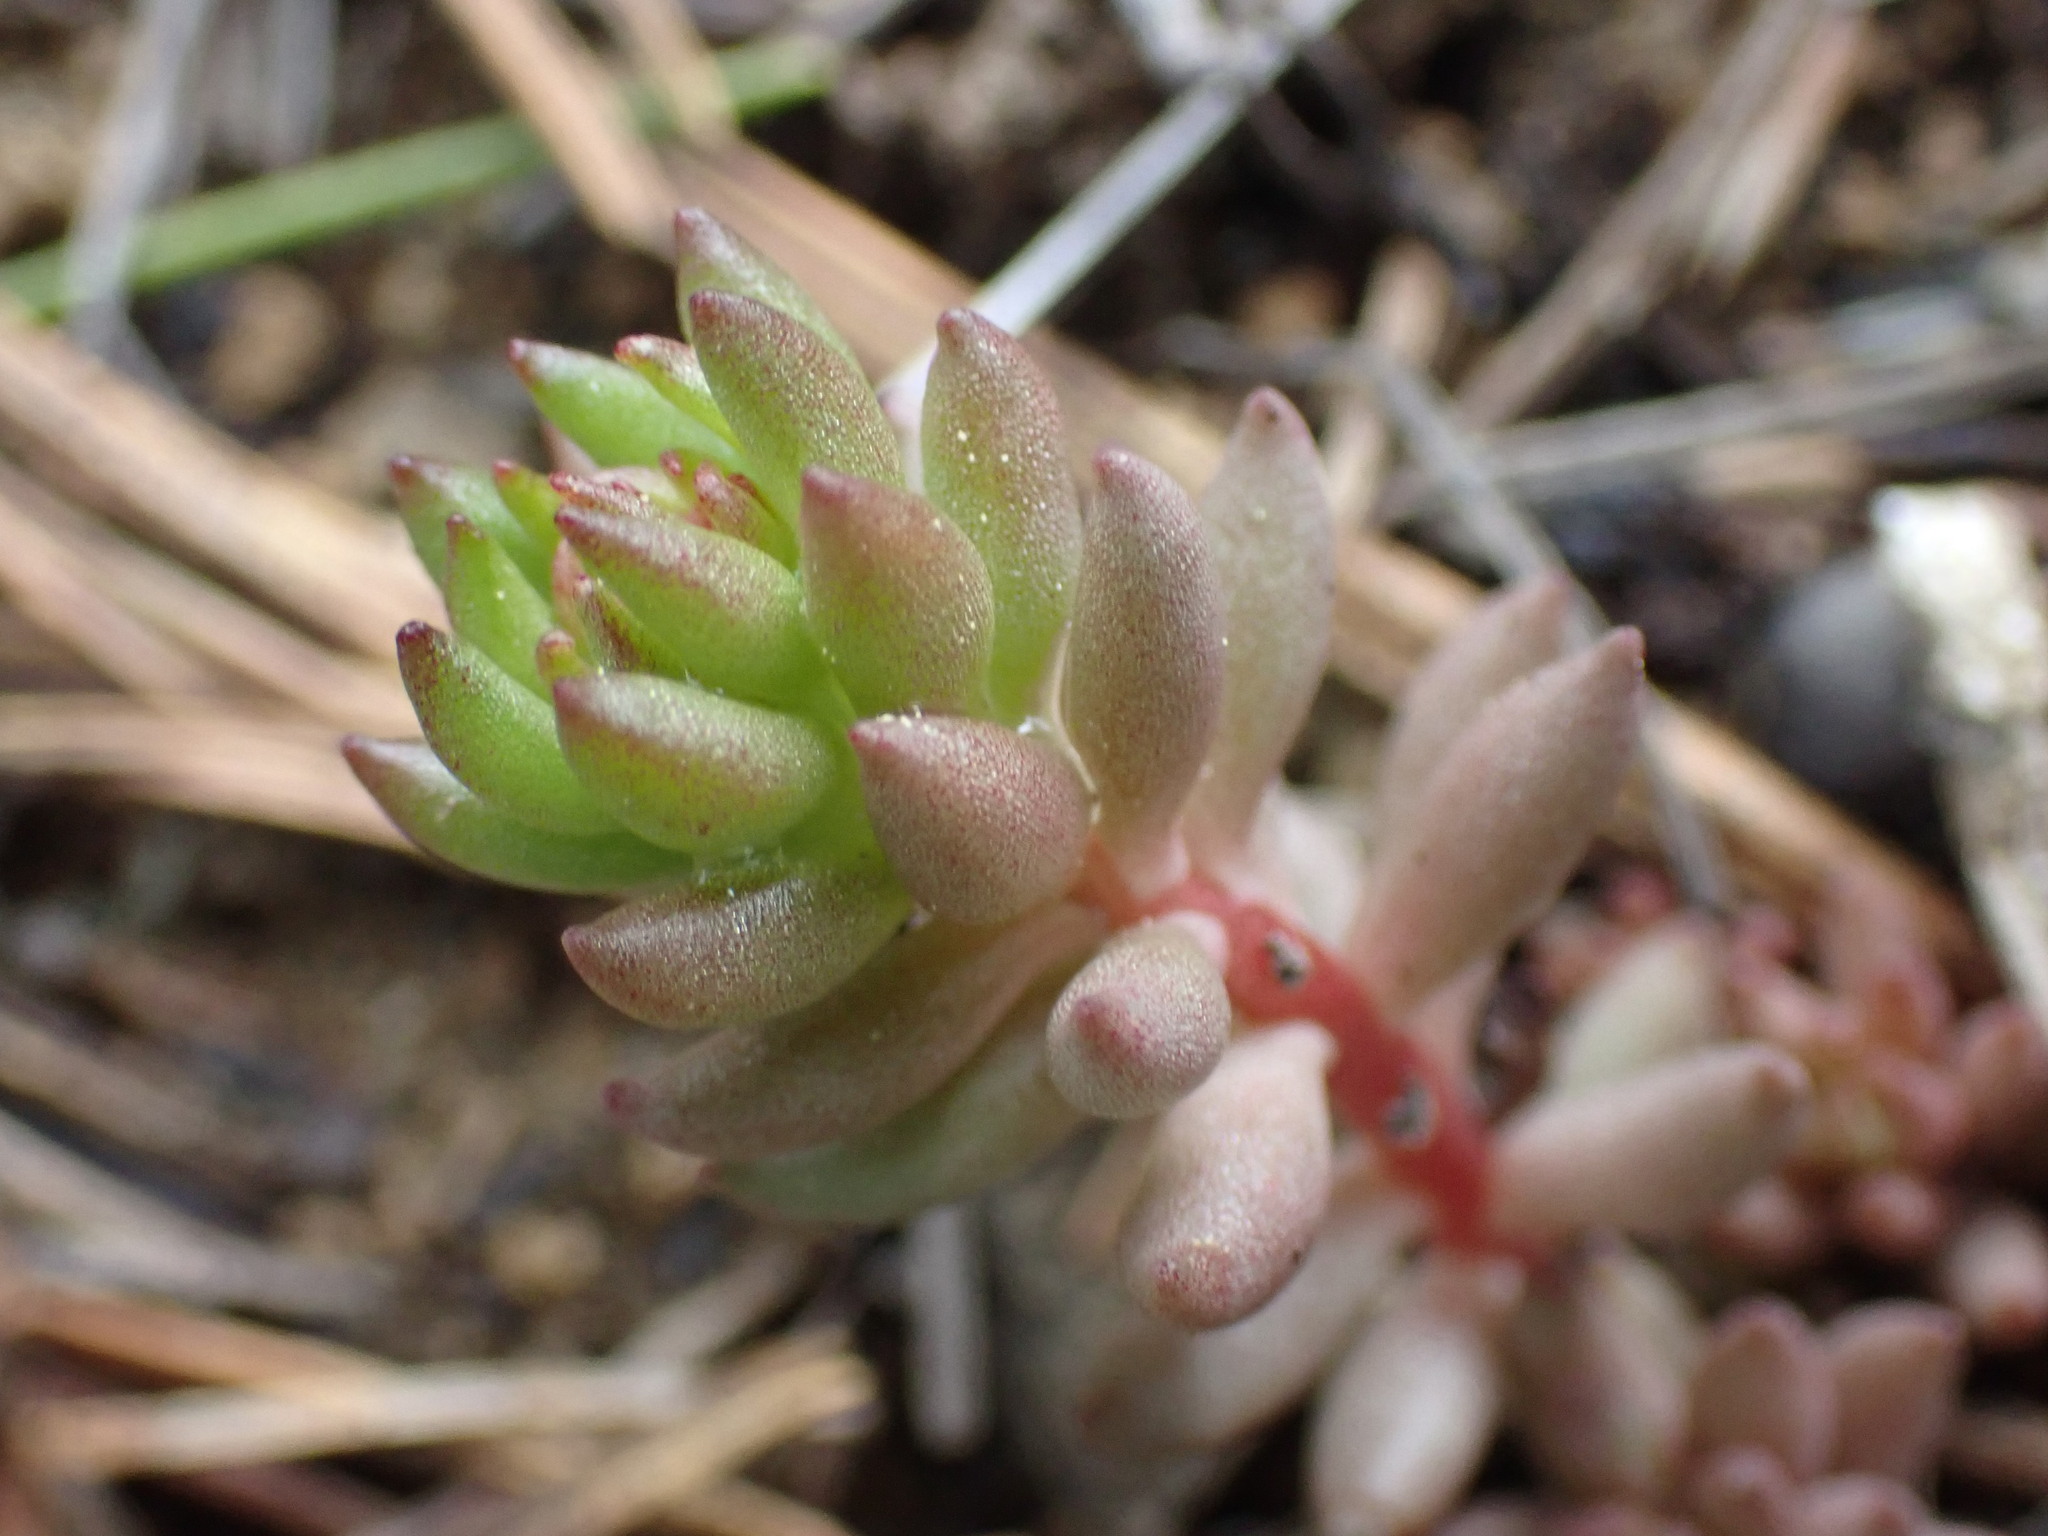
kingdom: Plantae
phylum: Tracheophyta
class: Magnoliopsida
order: Saxifragales
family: Crassulaceae
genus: Sedum
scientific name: Sedum lanceolatum
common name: Common stonecrop
